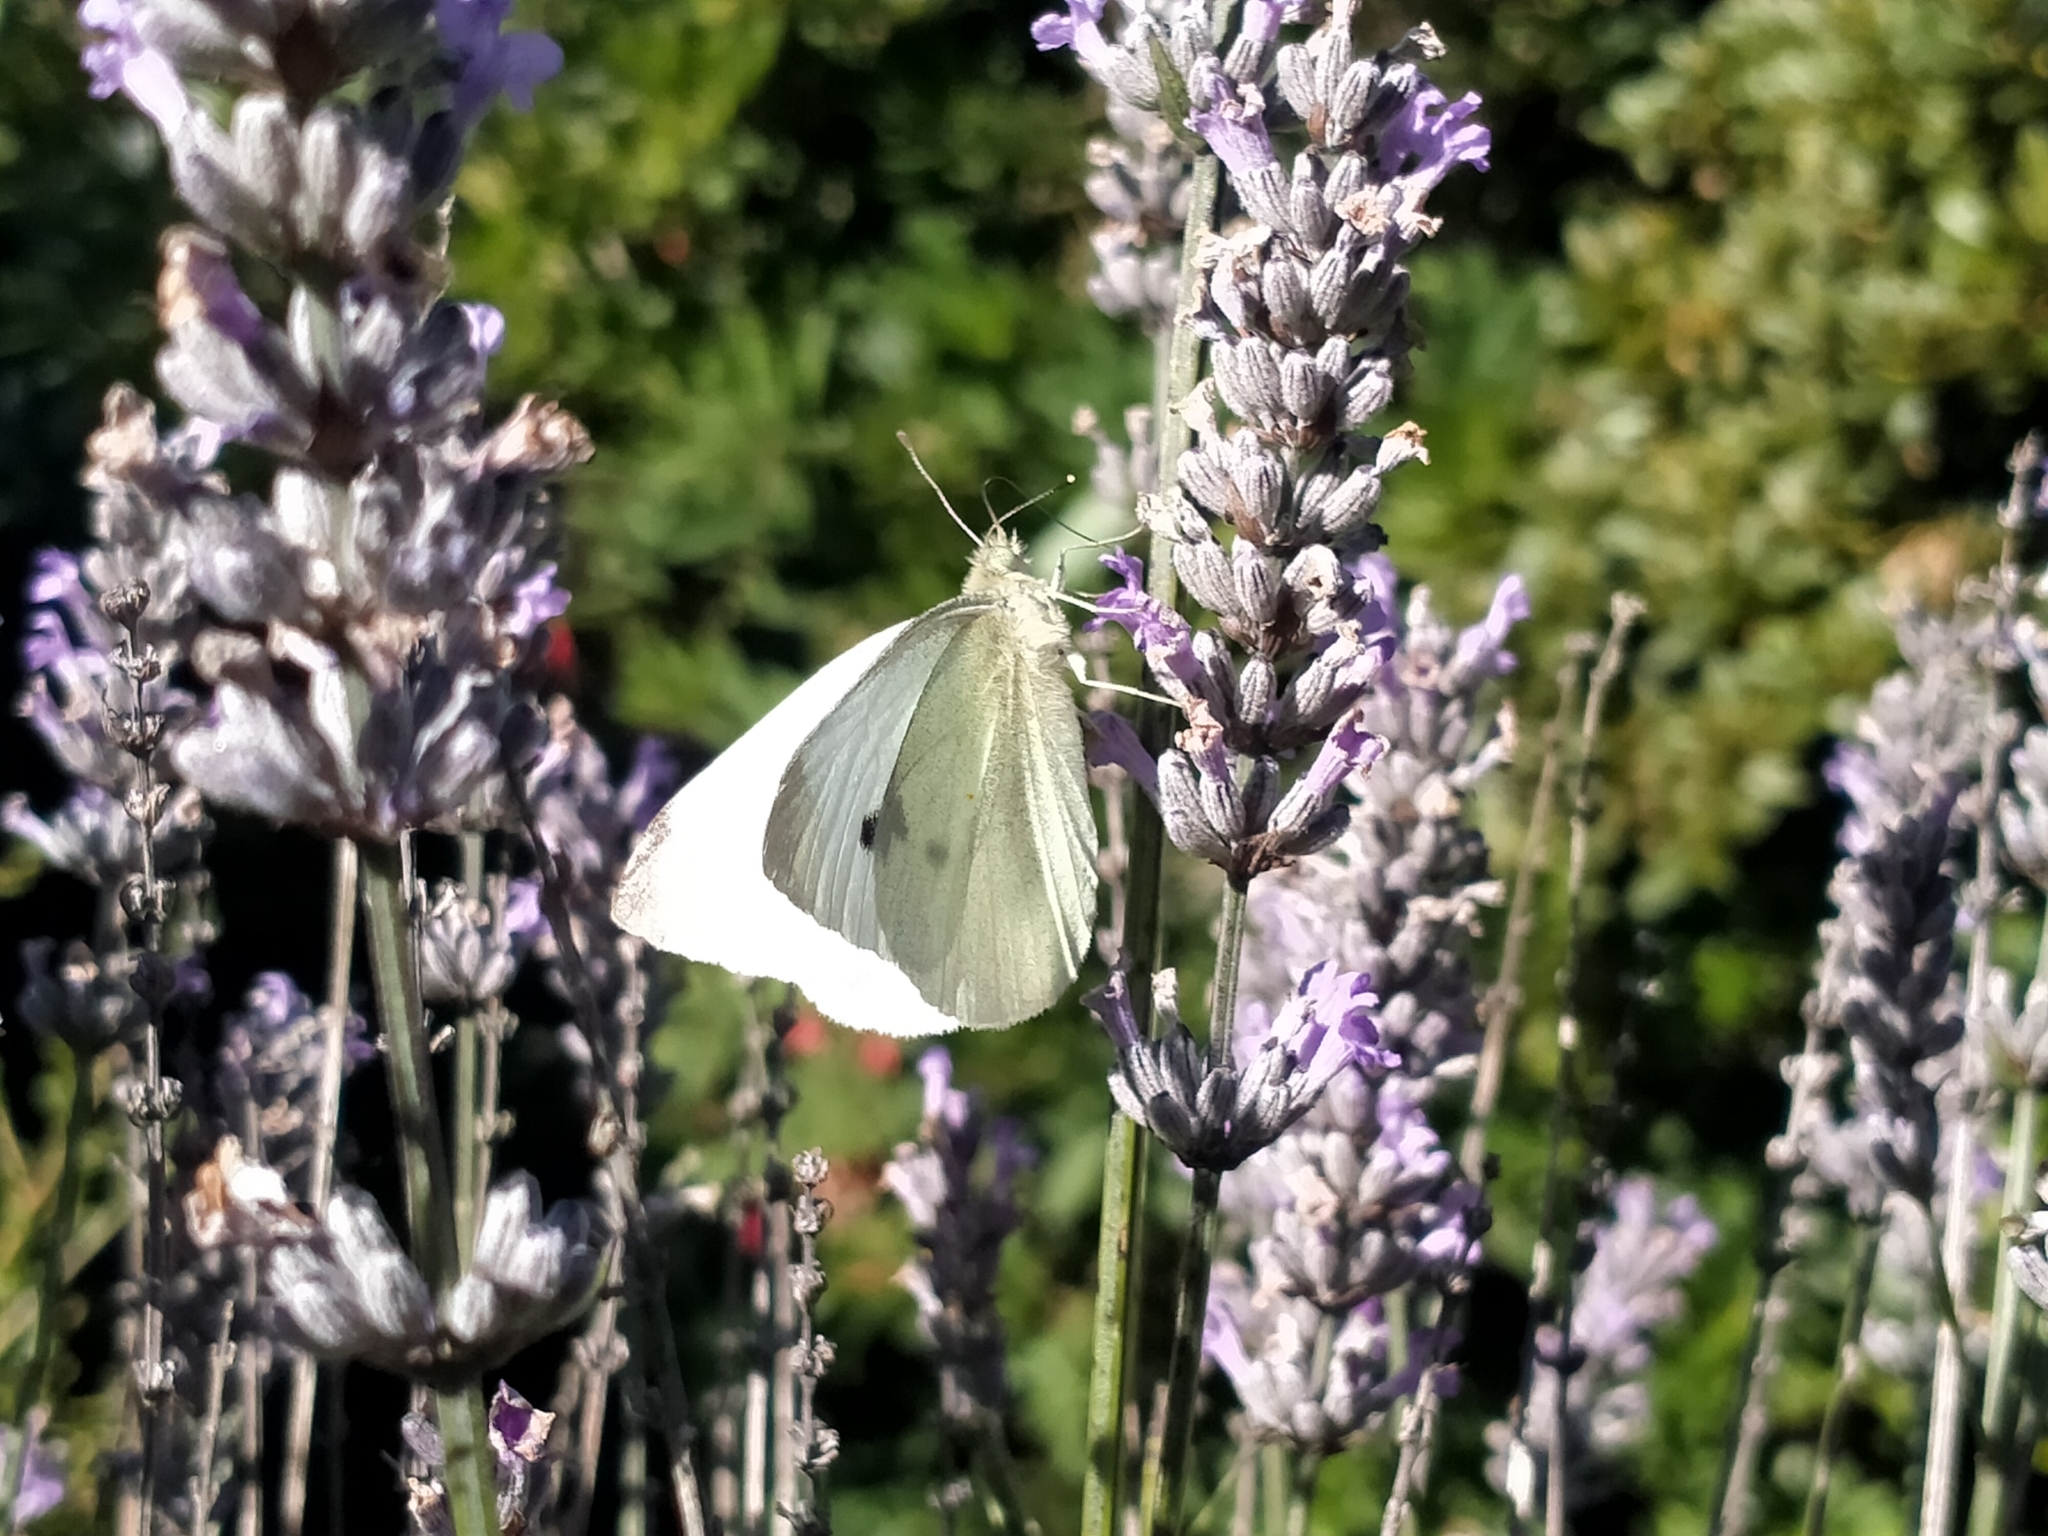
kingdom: Animalia
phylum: Arthropoda
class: Insecta
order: Lepidoptera
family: Pieridae
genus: Pieris
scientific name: Pieris rapae
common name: Small white
